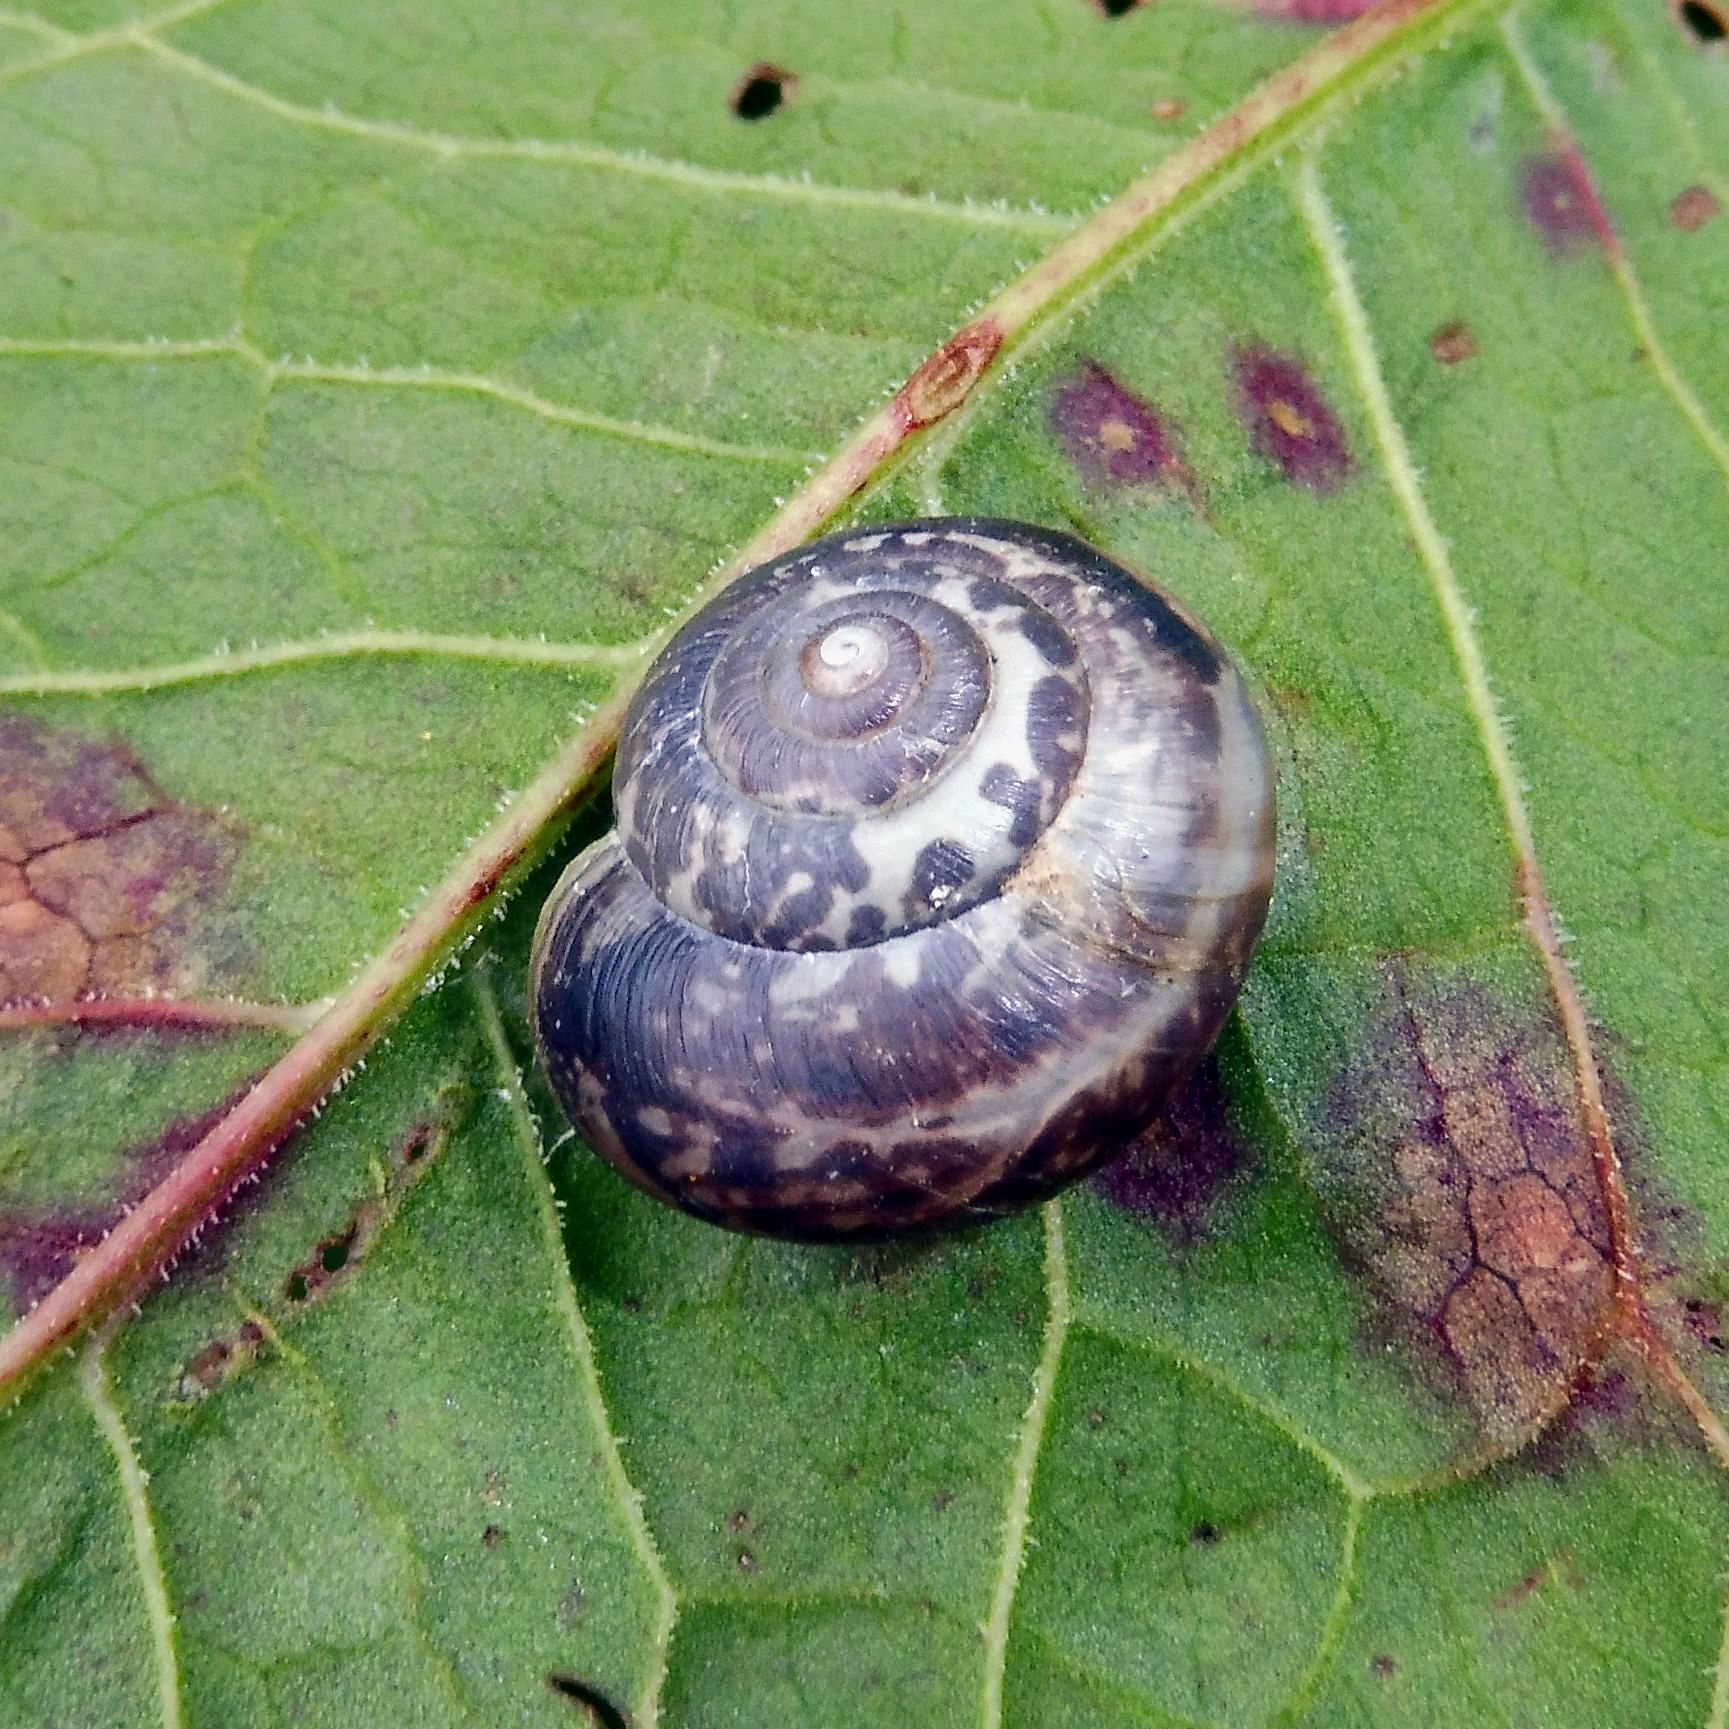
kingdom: Animalia
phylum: Mollusca
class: Gastropoda
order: Stylommatophora
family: Hygromiidae
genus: Monacha
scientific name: Monacha cantiana
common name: Kentish snail
